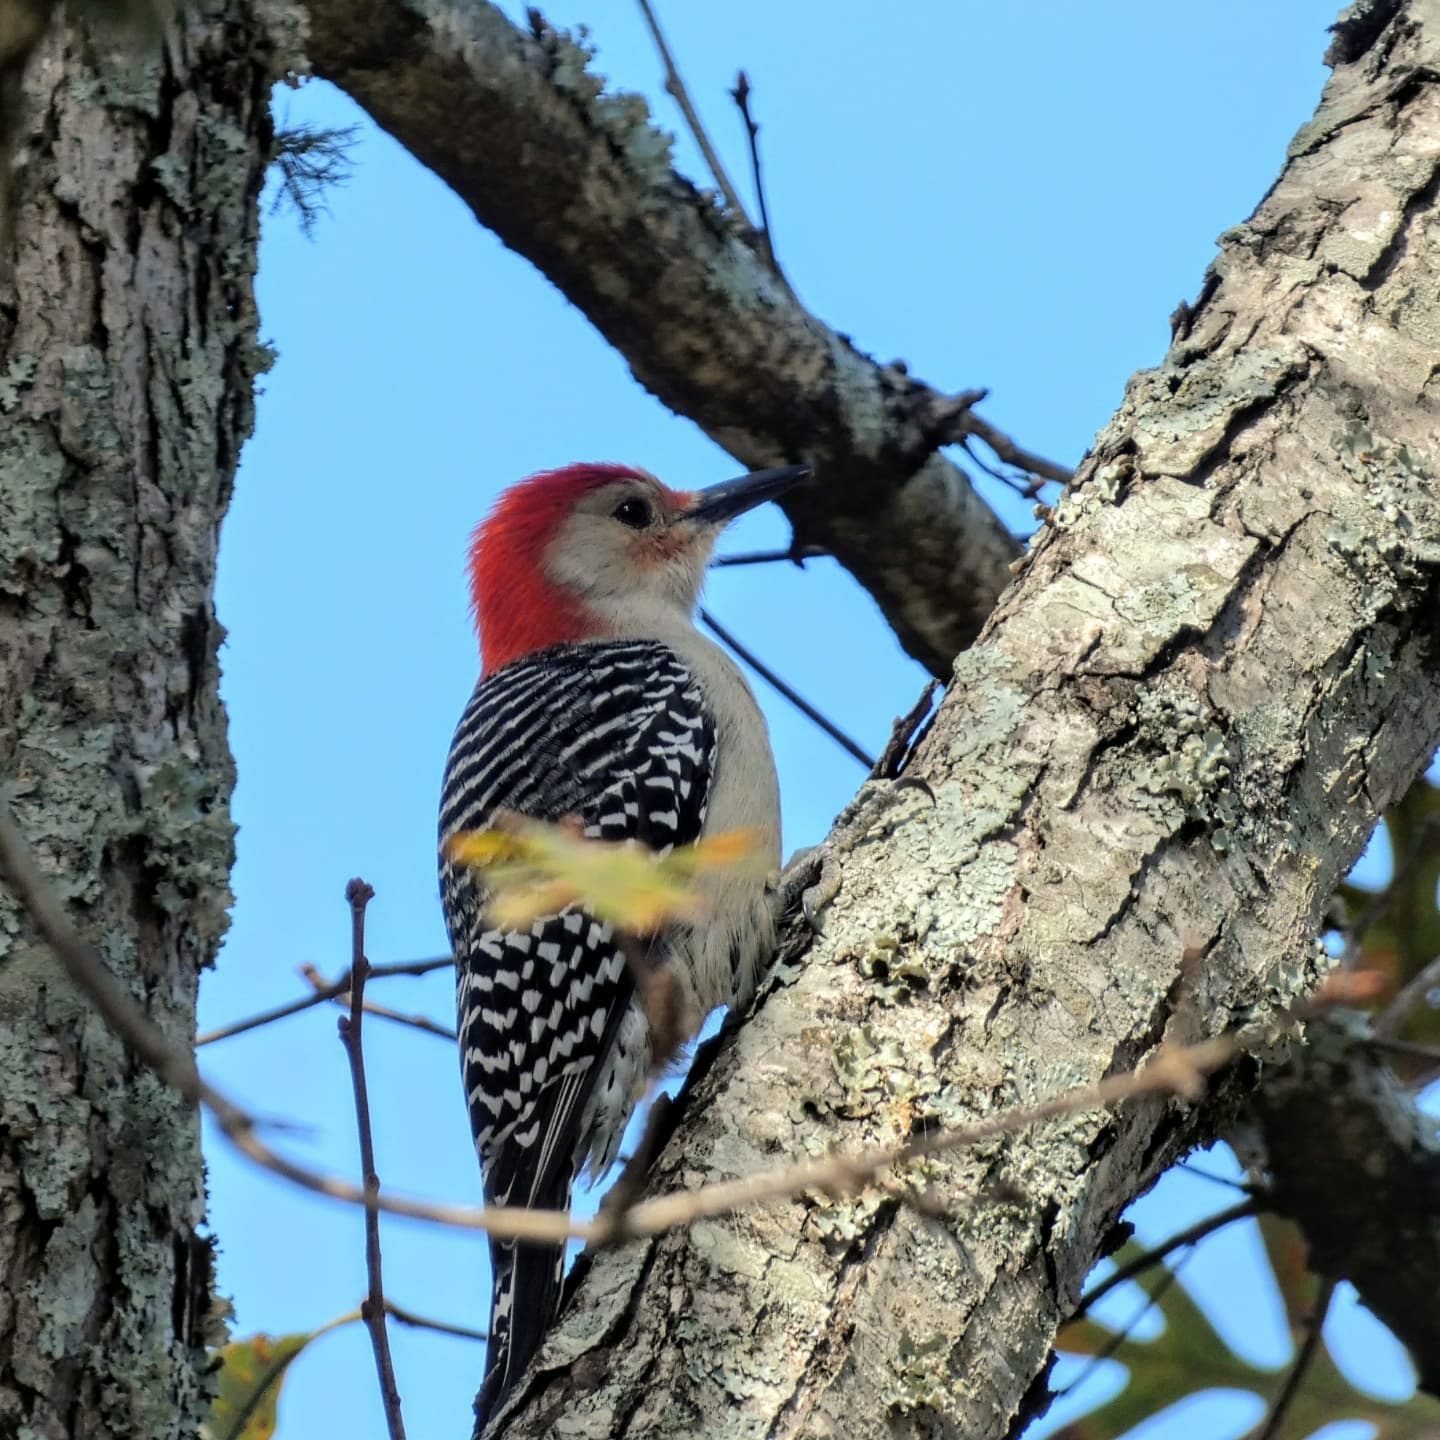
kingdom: Animalia
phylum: Chordata
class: Aves
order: Piciformes
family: Picidae
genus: Melanerpes
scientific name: Melanerpes carolinus
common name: Red-bellied woodpecker
